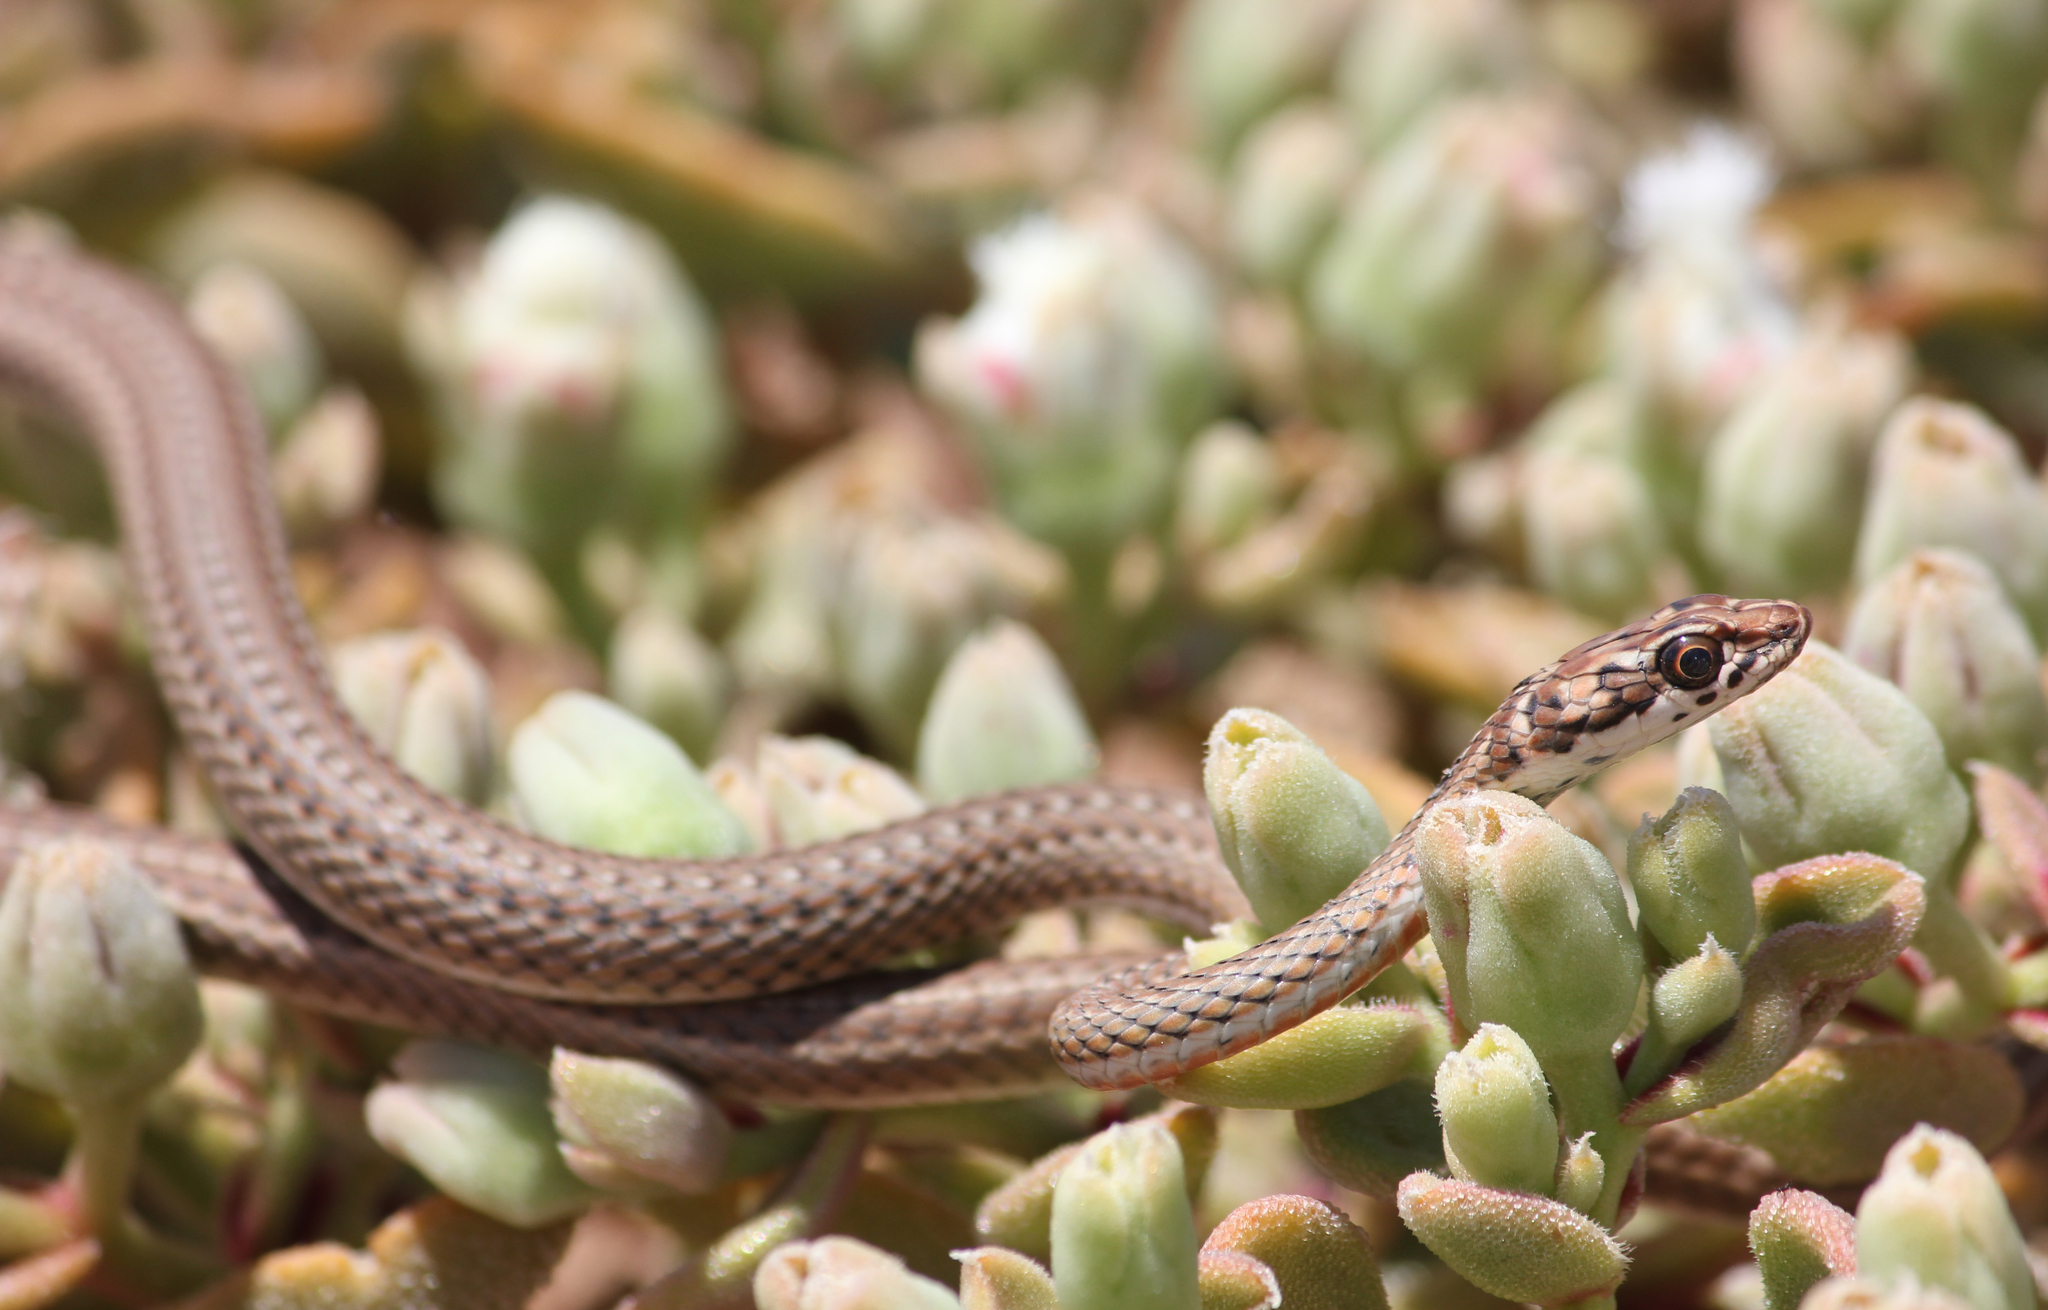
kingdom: Animalia
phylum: Chordata
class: Squamata
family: Psammophiidae
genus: Psammophis
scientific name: Psammophis notostictus
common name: Karoo sand snake
